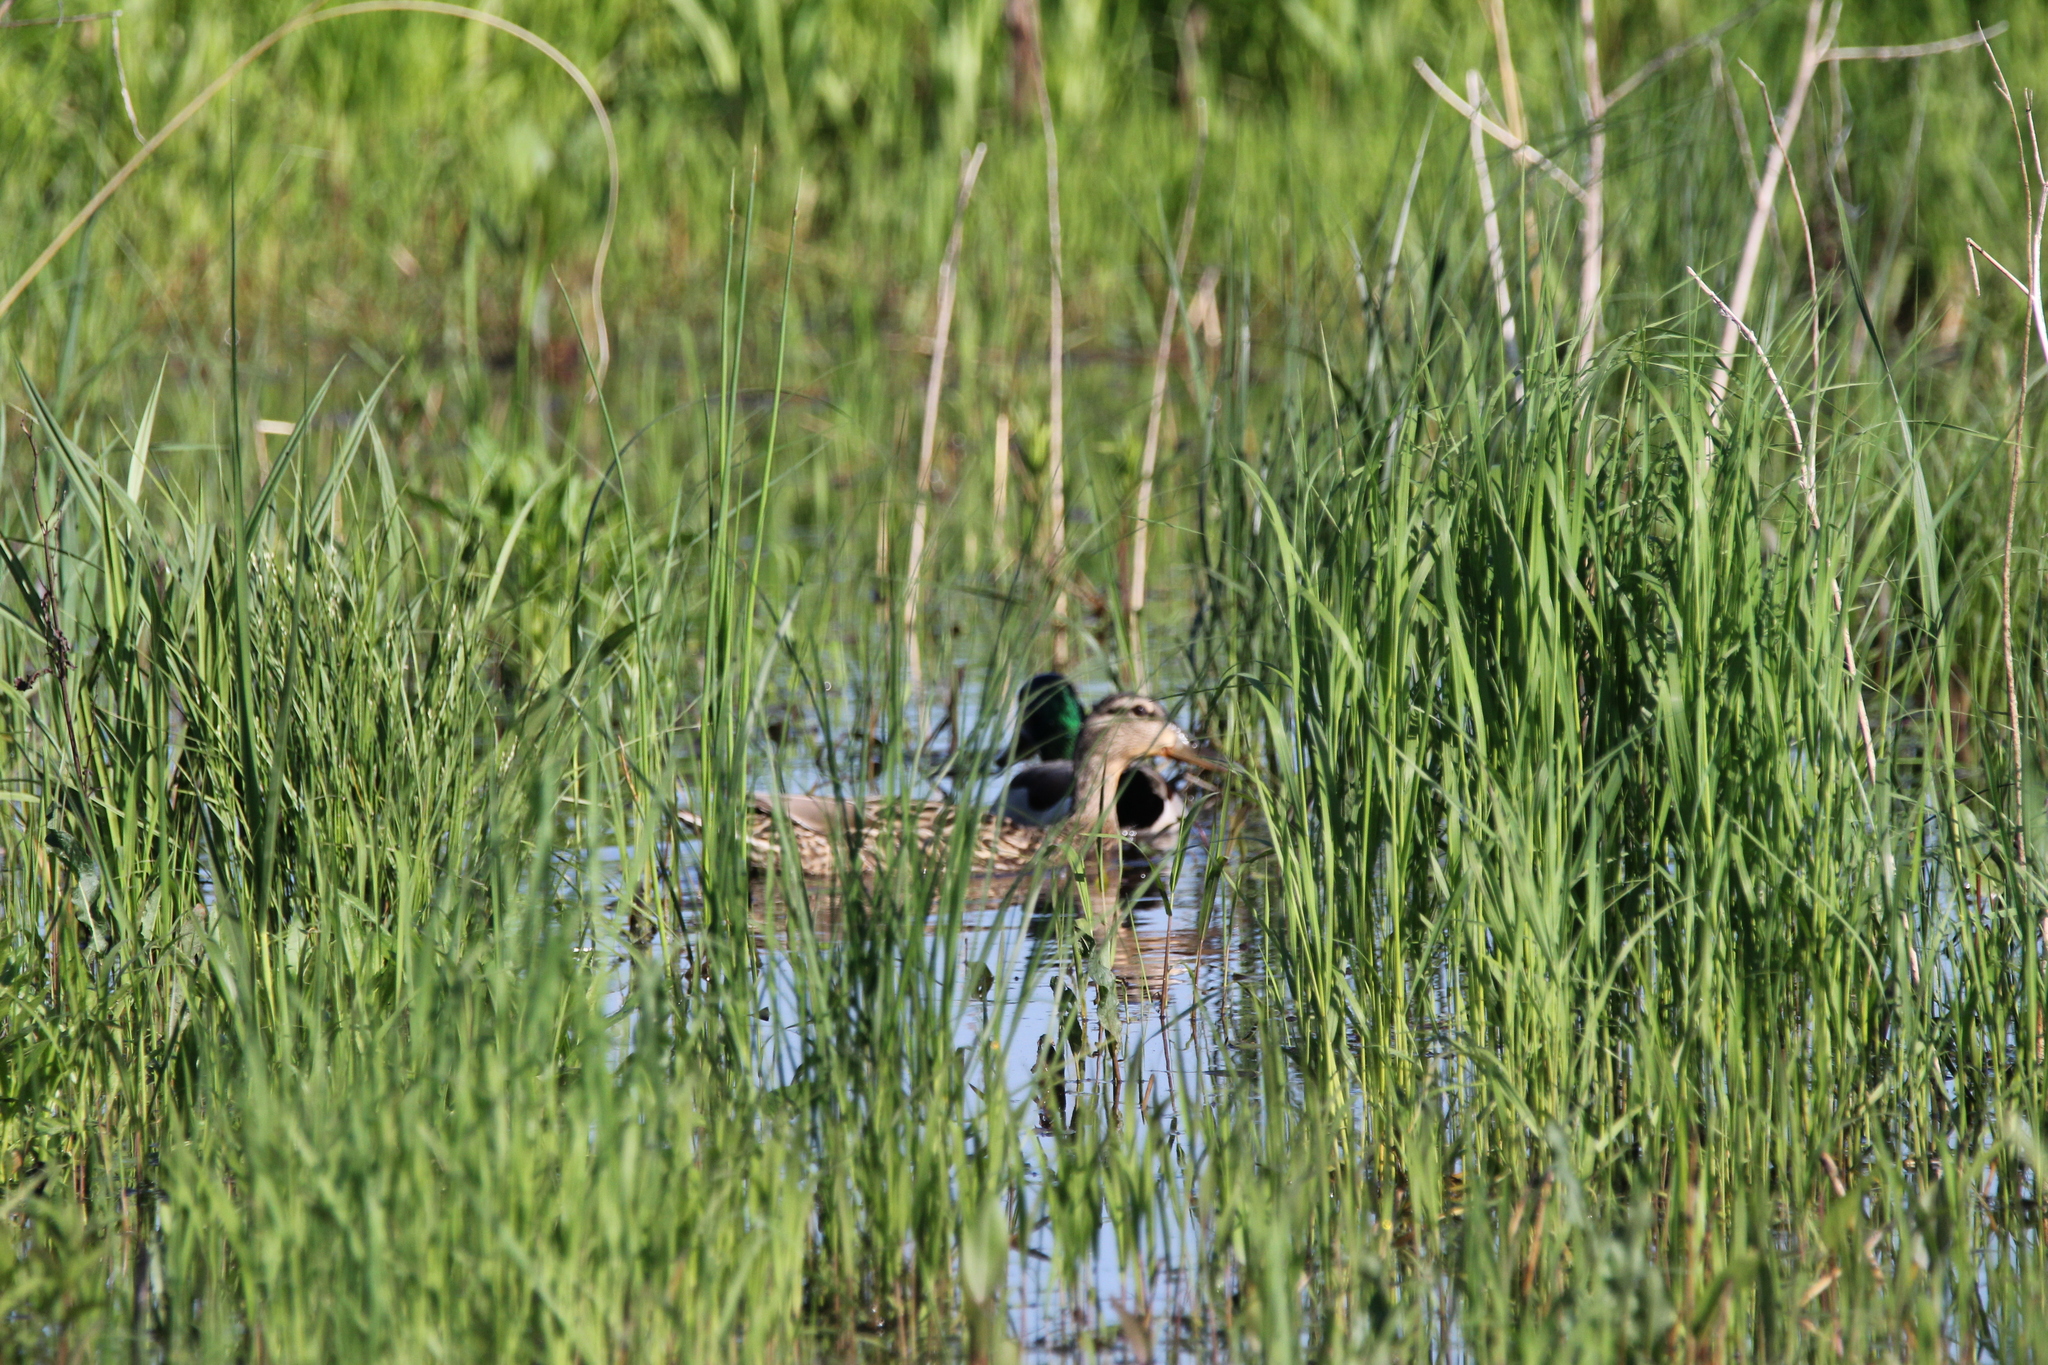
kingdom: Animalia
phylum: Chordata
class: Aves
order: Anseriformes
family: Anatidae
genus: Anas
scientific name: Anas platyrhynchos
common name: Mallard
